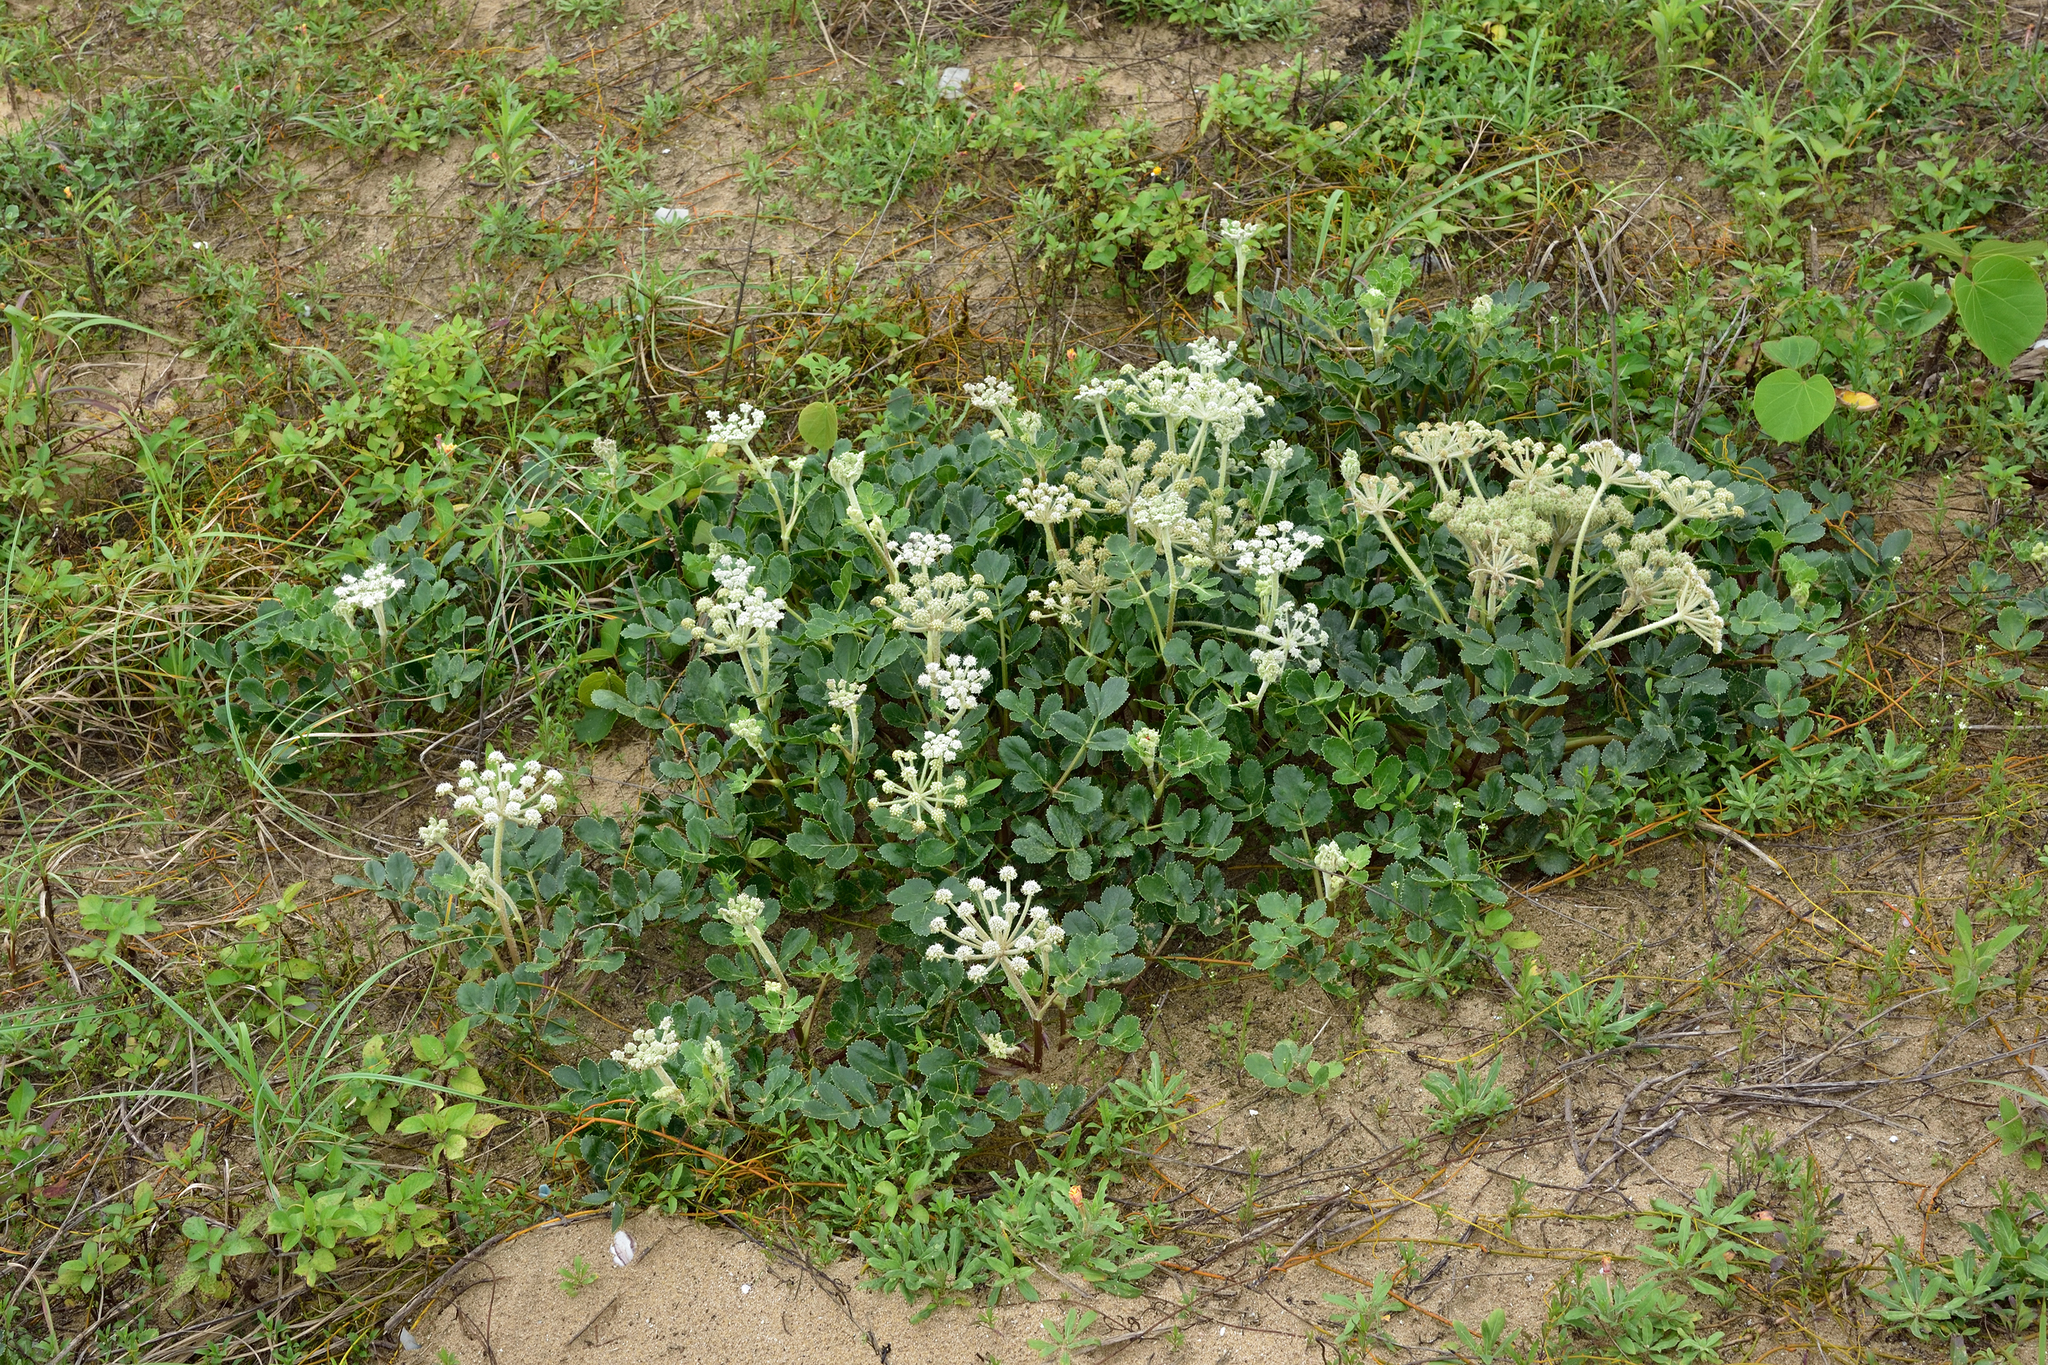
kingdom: Plantae
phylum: Tracheophyta
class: Magnoliopsida
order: Apiales
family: Apiaceae
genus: Glehnia
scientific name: Glehnia littoralis
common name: Beach silvertop
